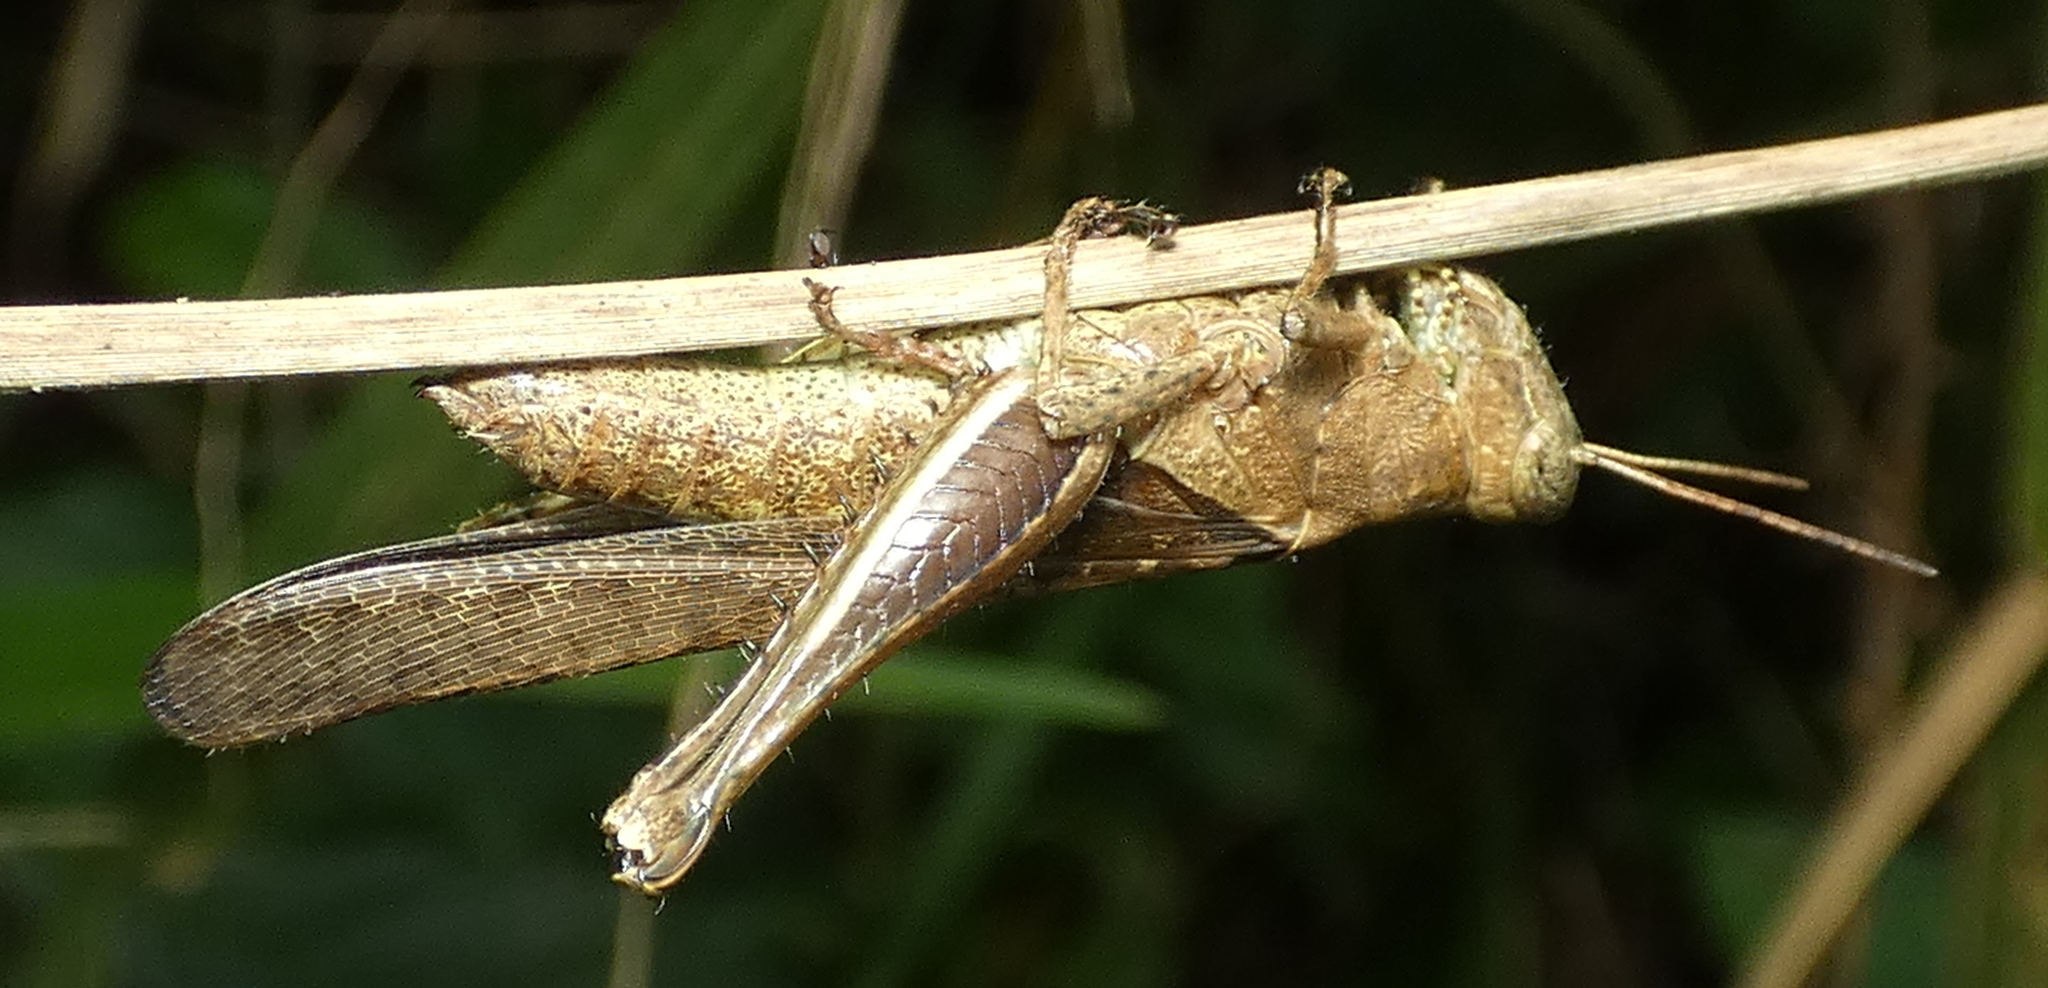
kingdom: Animalia
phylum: Arthropoda
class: Insecta
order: Orthoptera
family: Acrididae
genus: Abracris
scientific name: Abracris flavolineata
